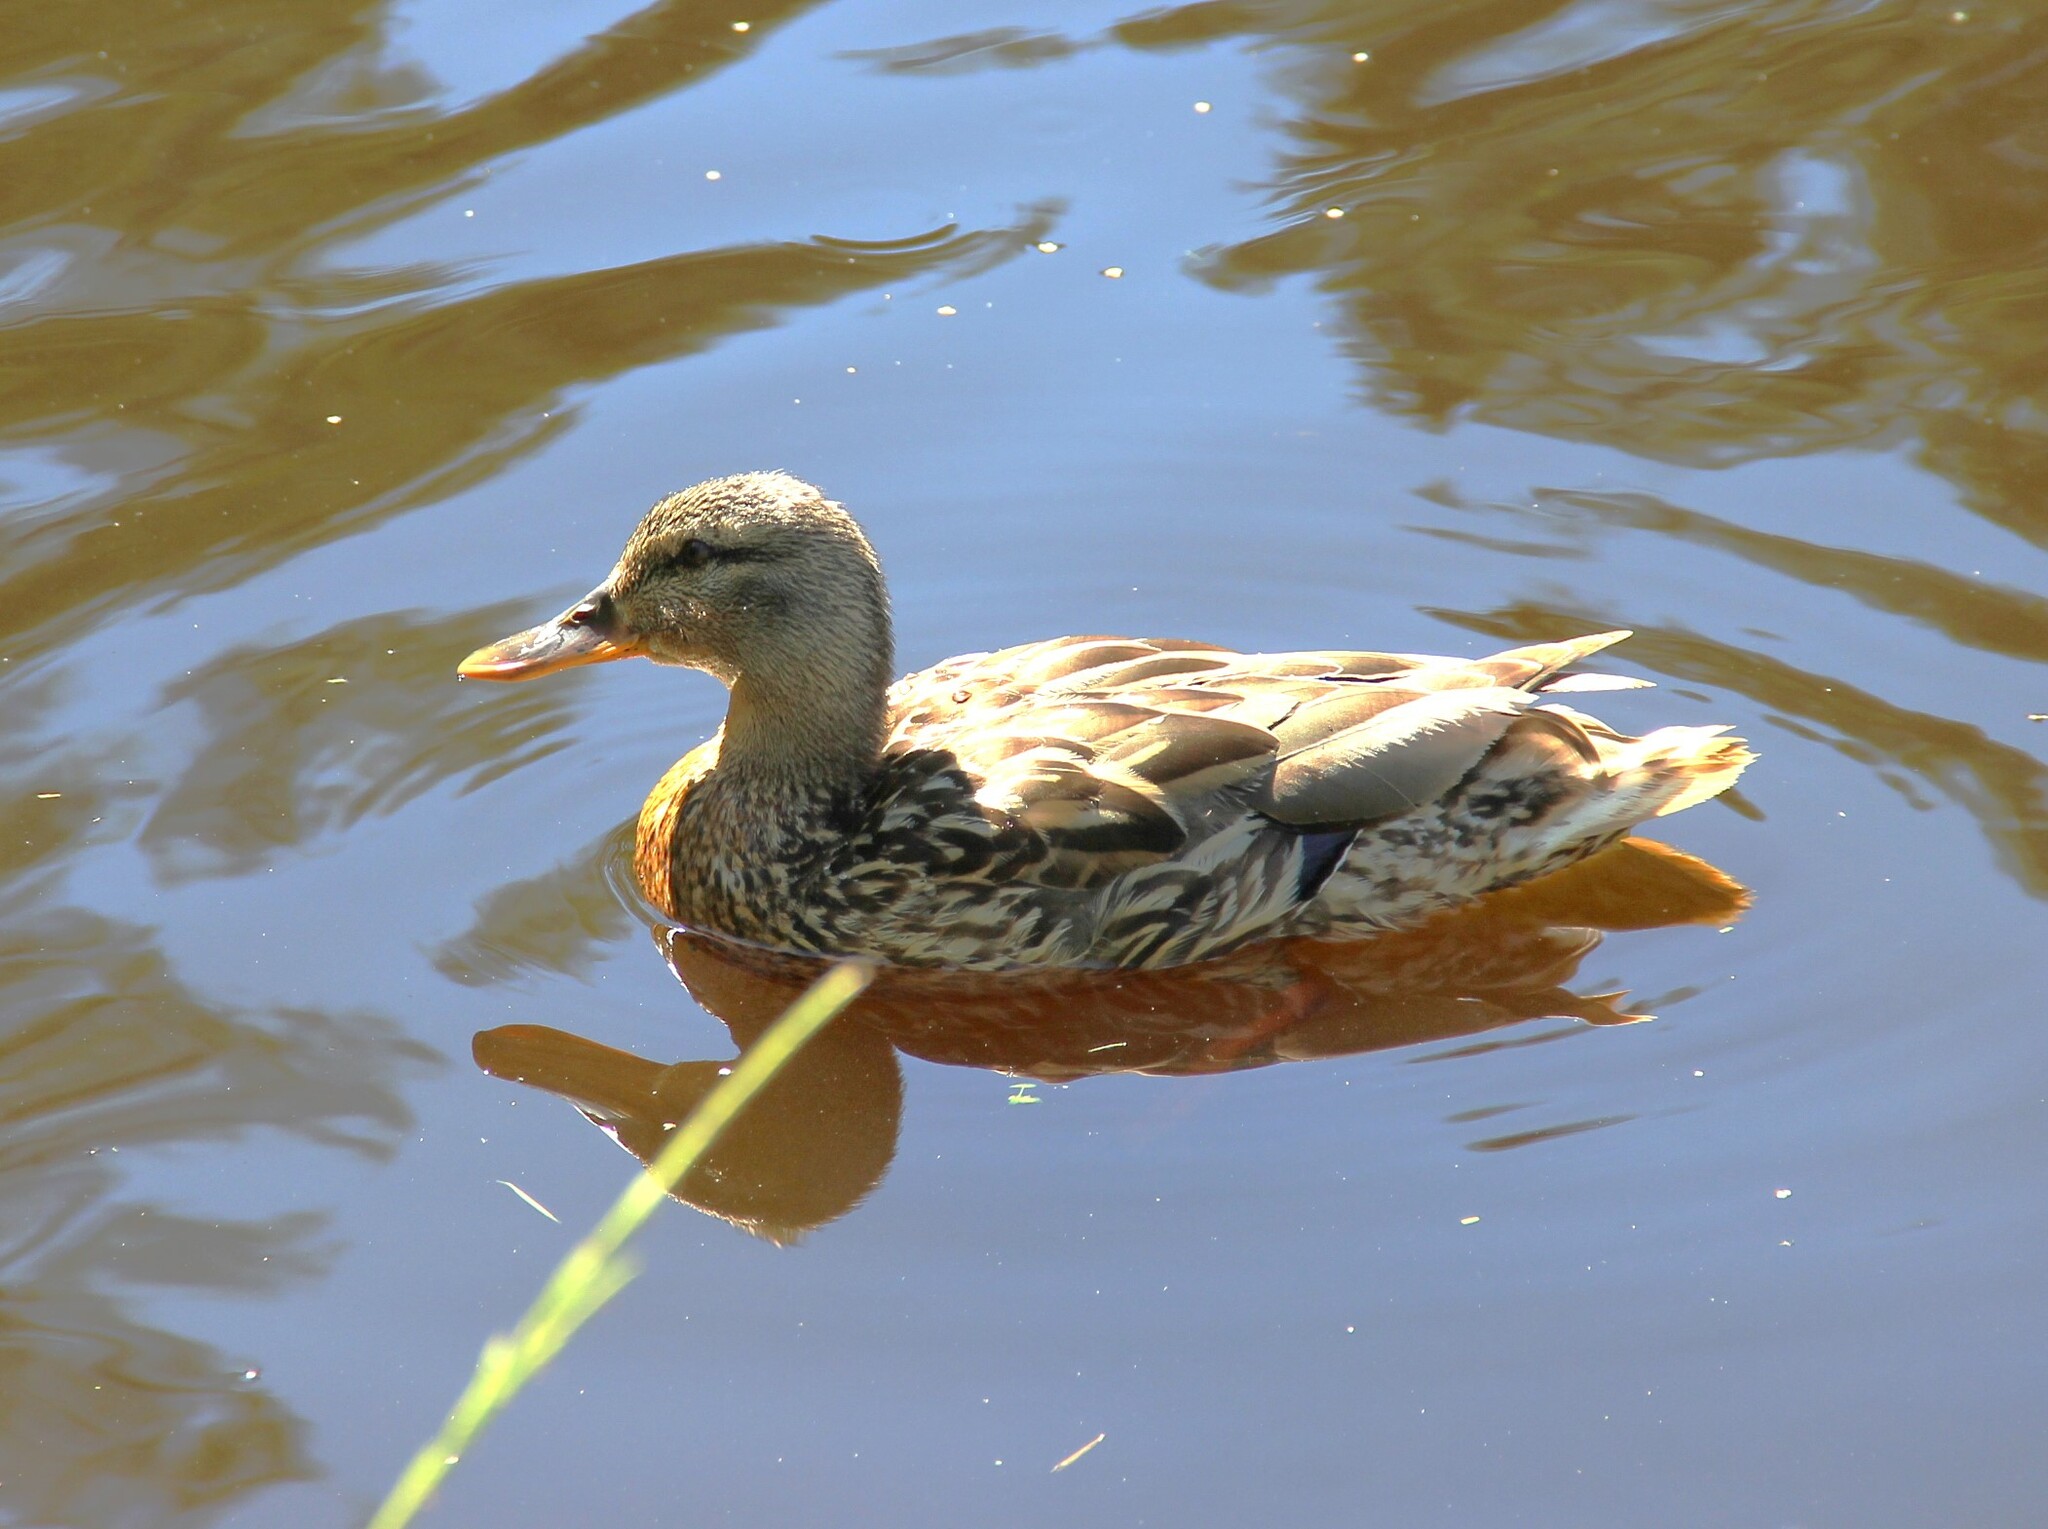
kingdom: Animalia
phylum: Chordata
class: Aves
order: Anseriformes
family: Anatidae
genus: Anas
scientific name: Anas platyrhynchos
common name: Mallard
